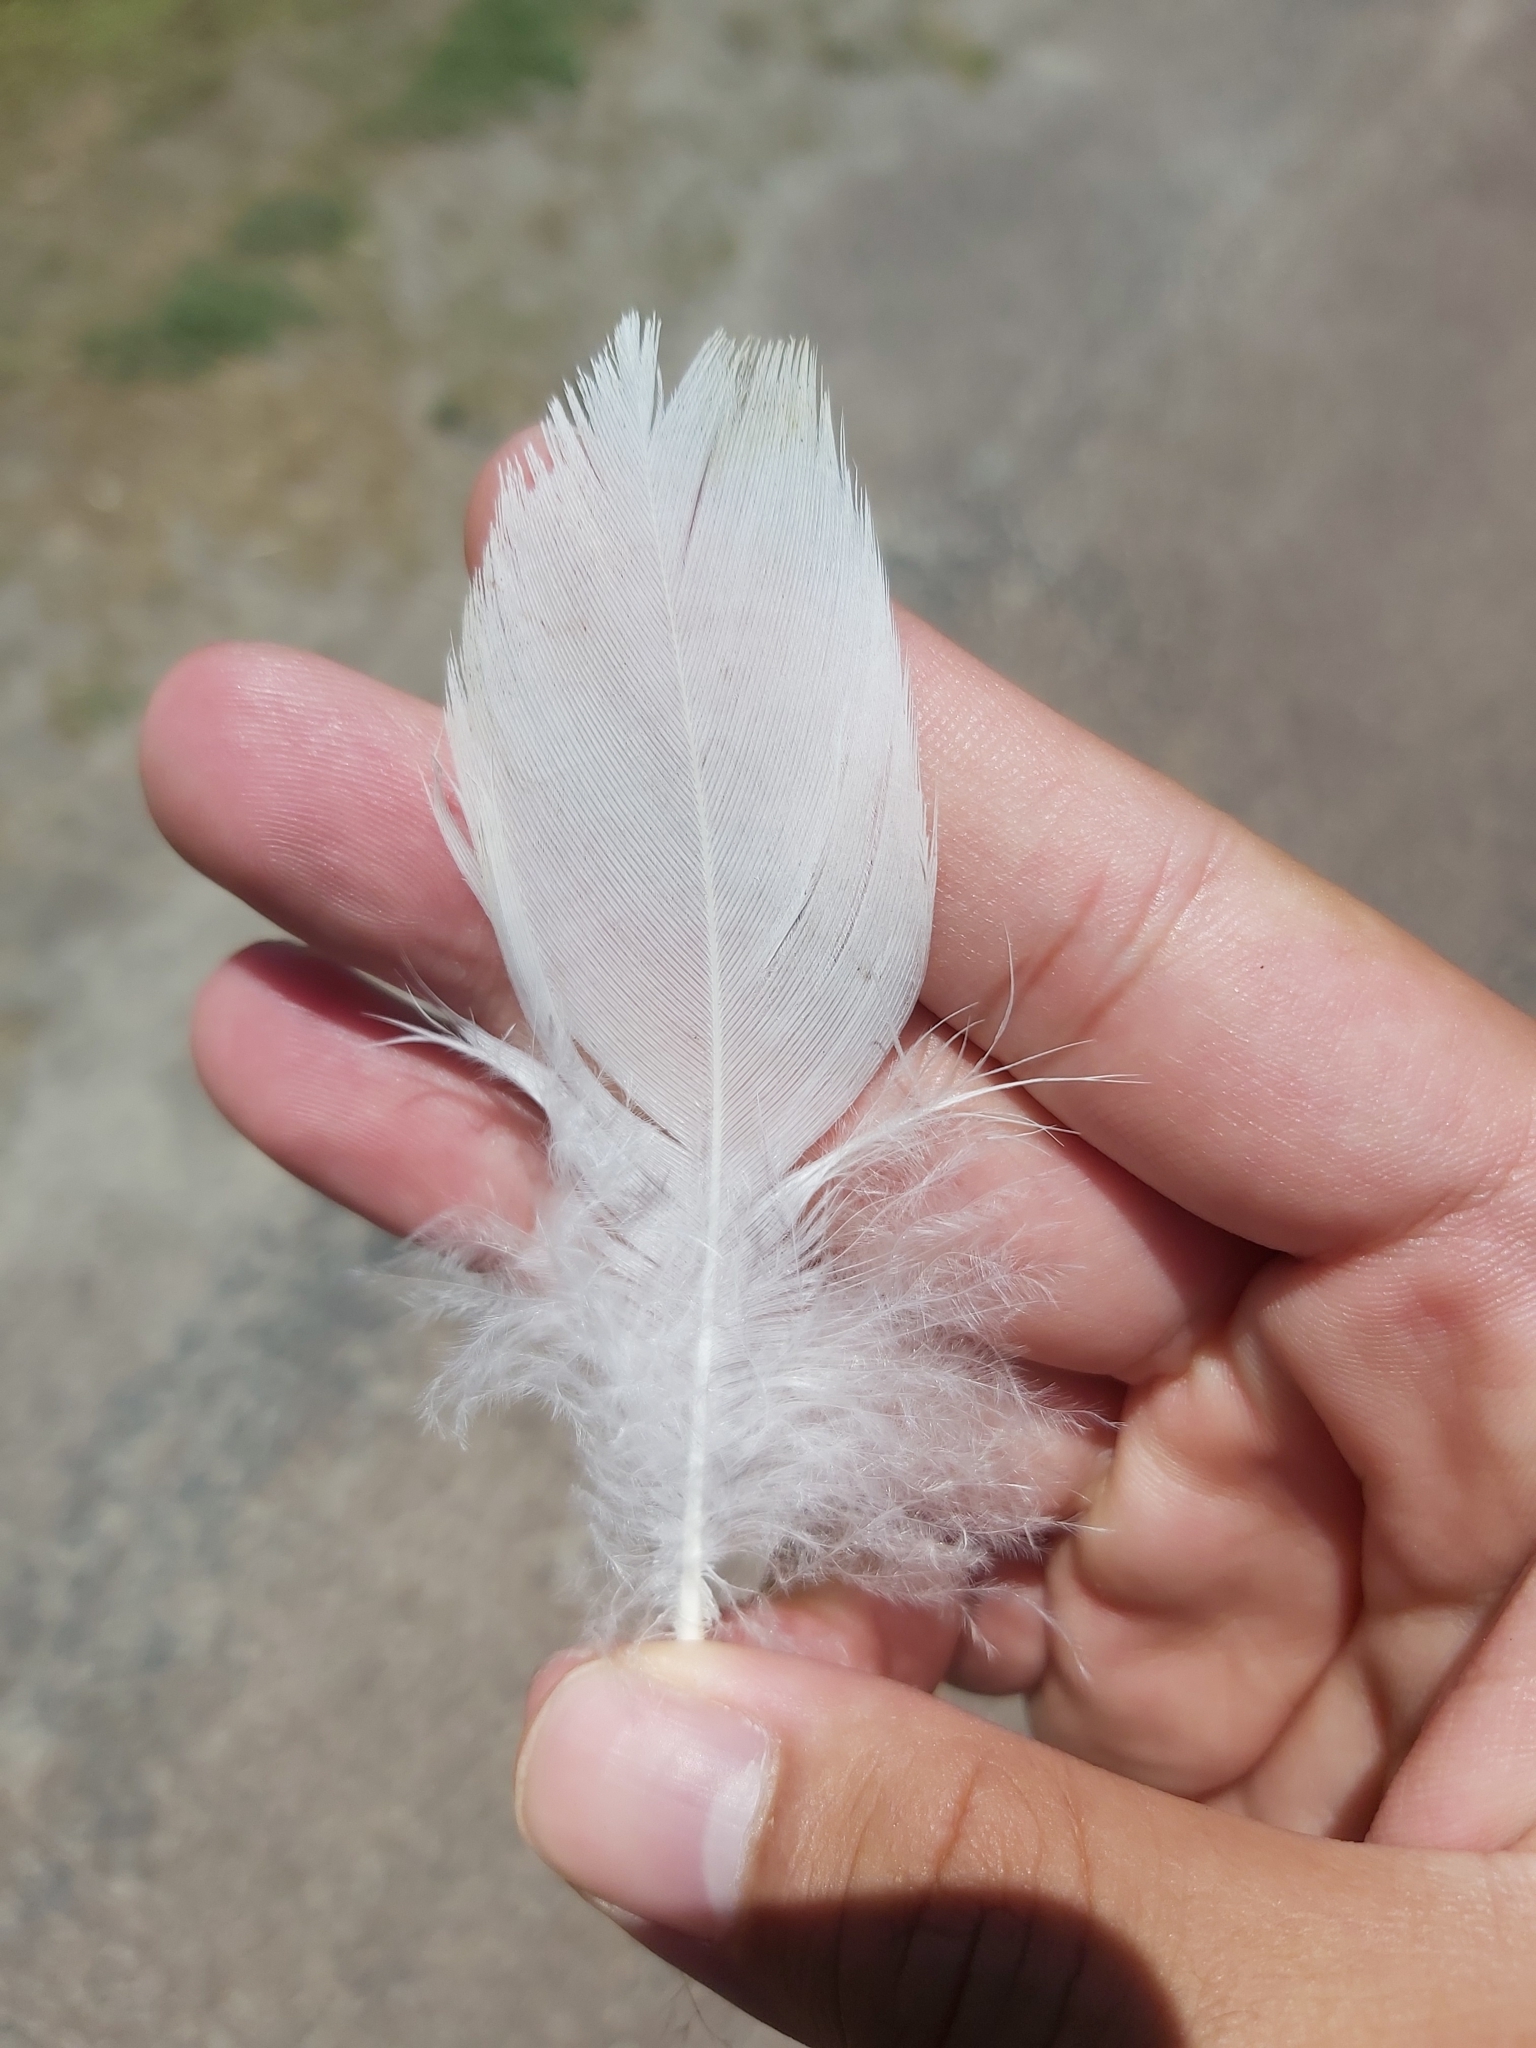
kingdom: Animalia
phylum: Chordata
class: Aves
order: Anseriformes
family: Anatidae
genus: Cairina
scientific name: Cairina moschata
